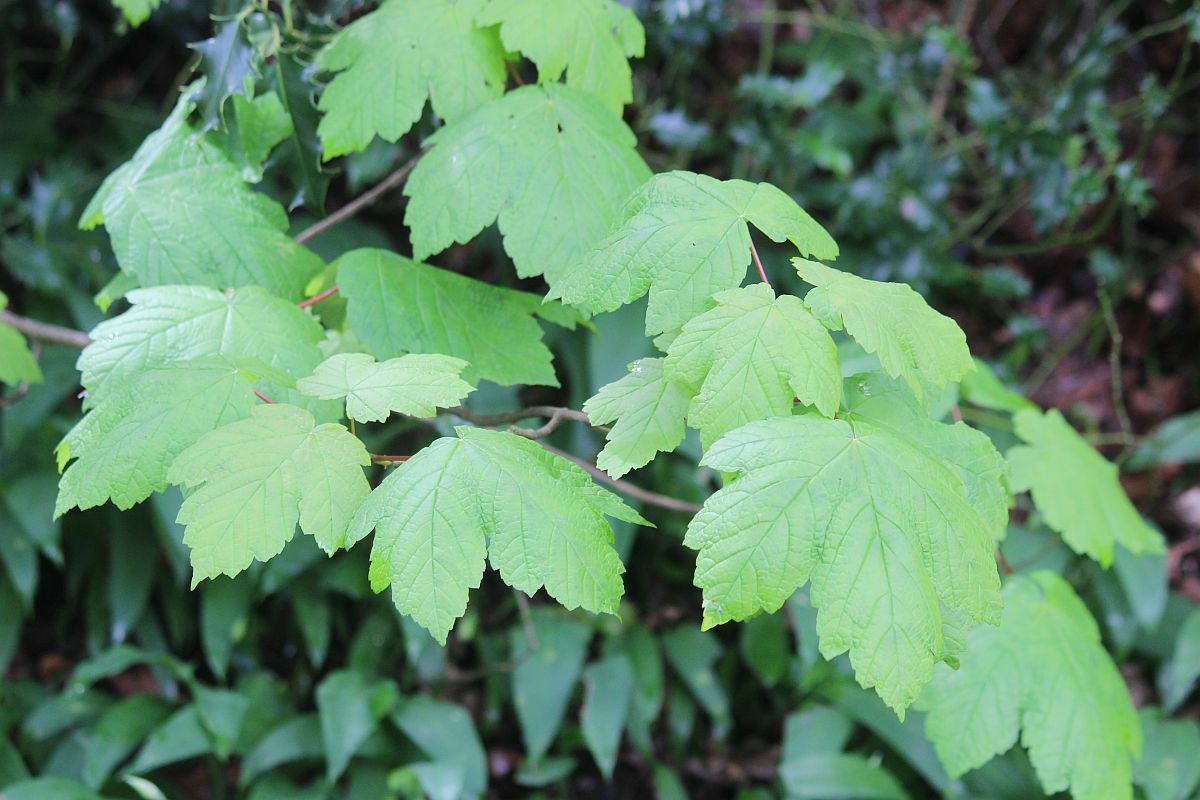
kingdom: Plantae
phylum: Tracheophyta
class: Magnoliopsida
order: Sapindales
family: Sapindaceae
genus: Acer
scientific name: Acer pseudoplatanus
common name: Sycamore
